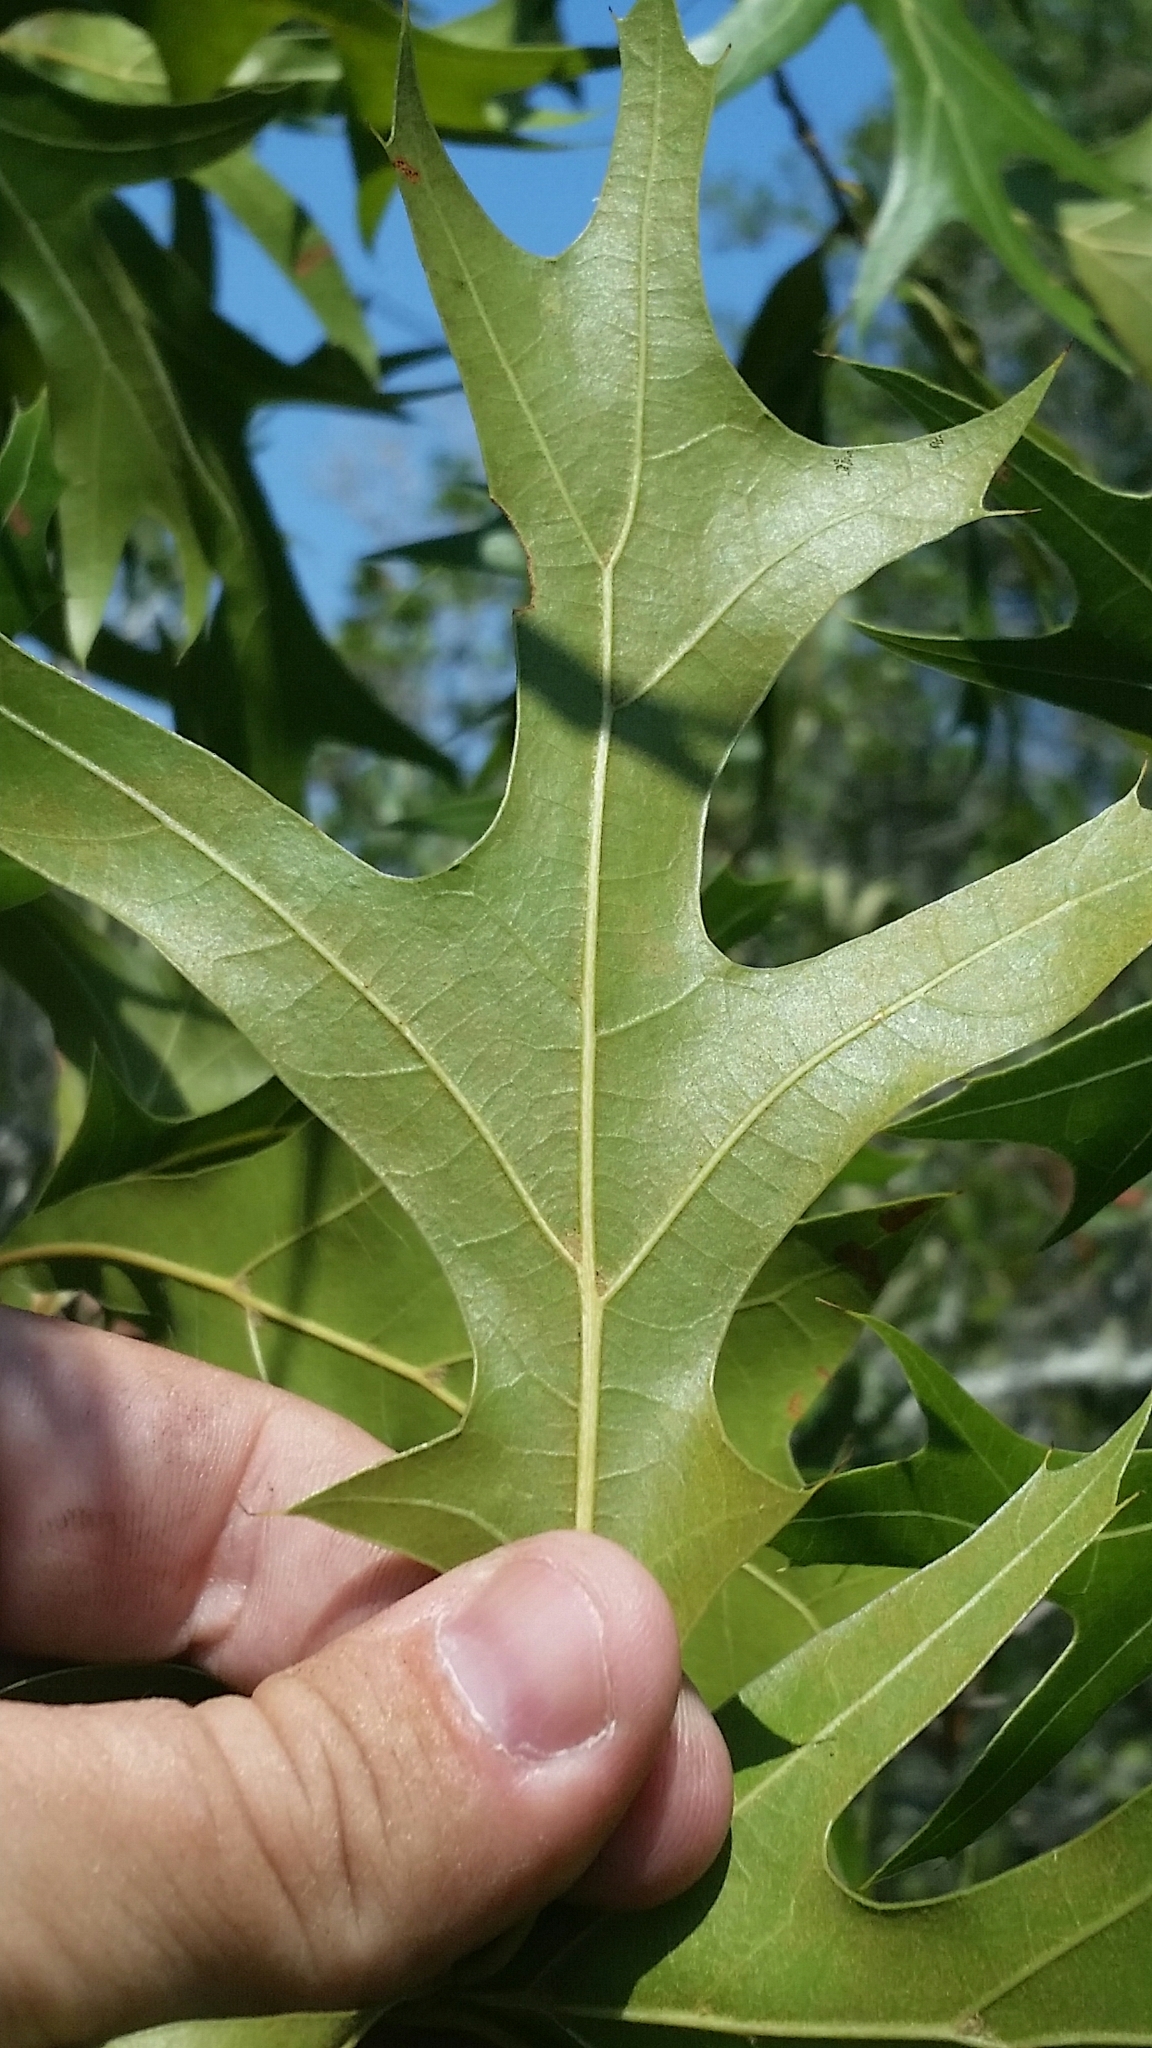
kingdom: Plantae
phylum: Tracheophyta
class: Magnoliopsida
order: Fagales
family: Fagaceae
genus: Quercus
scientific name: Quercus laevis
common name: Turkey oak
